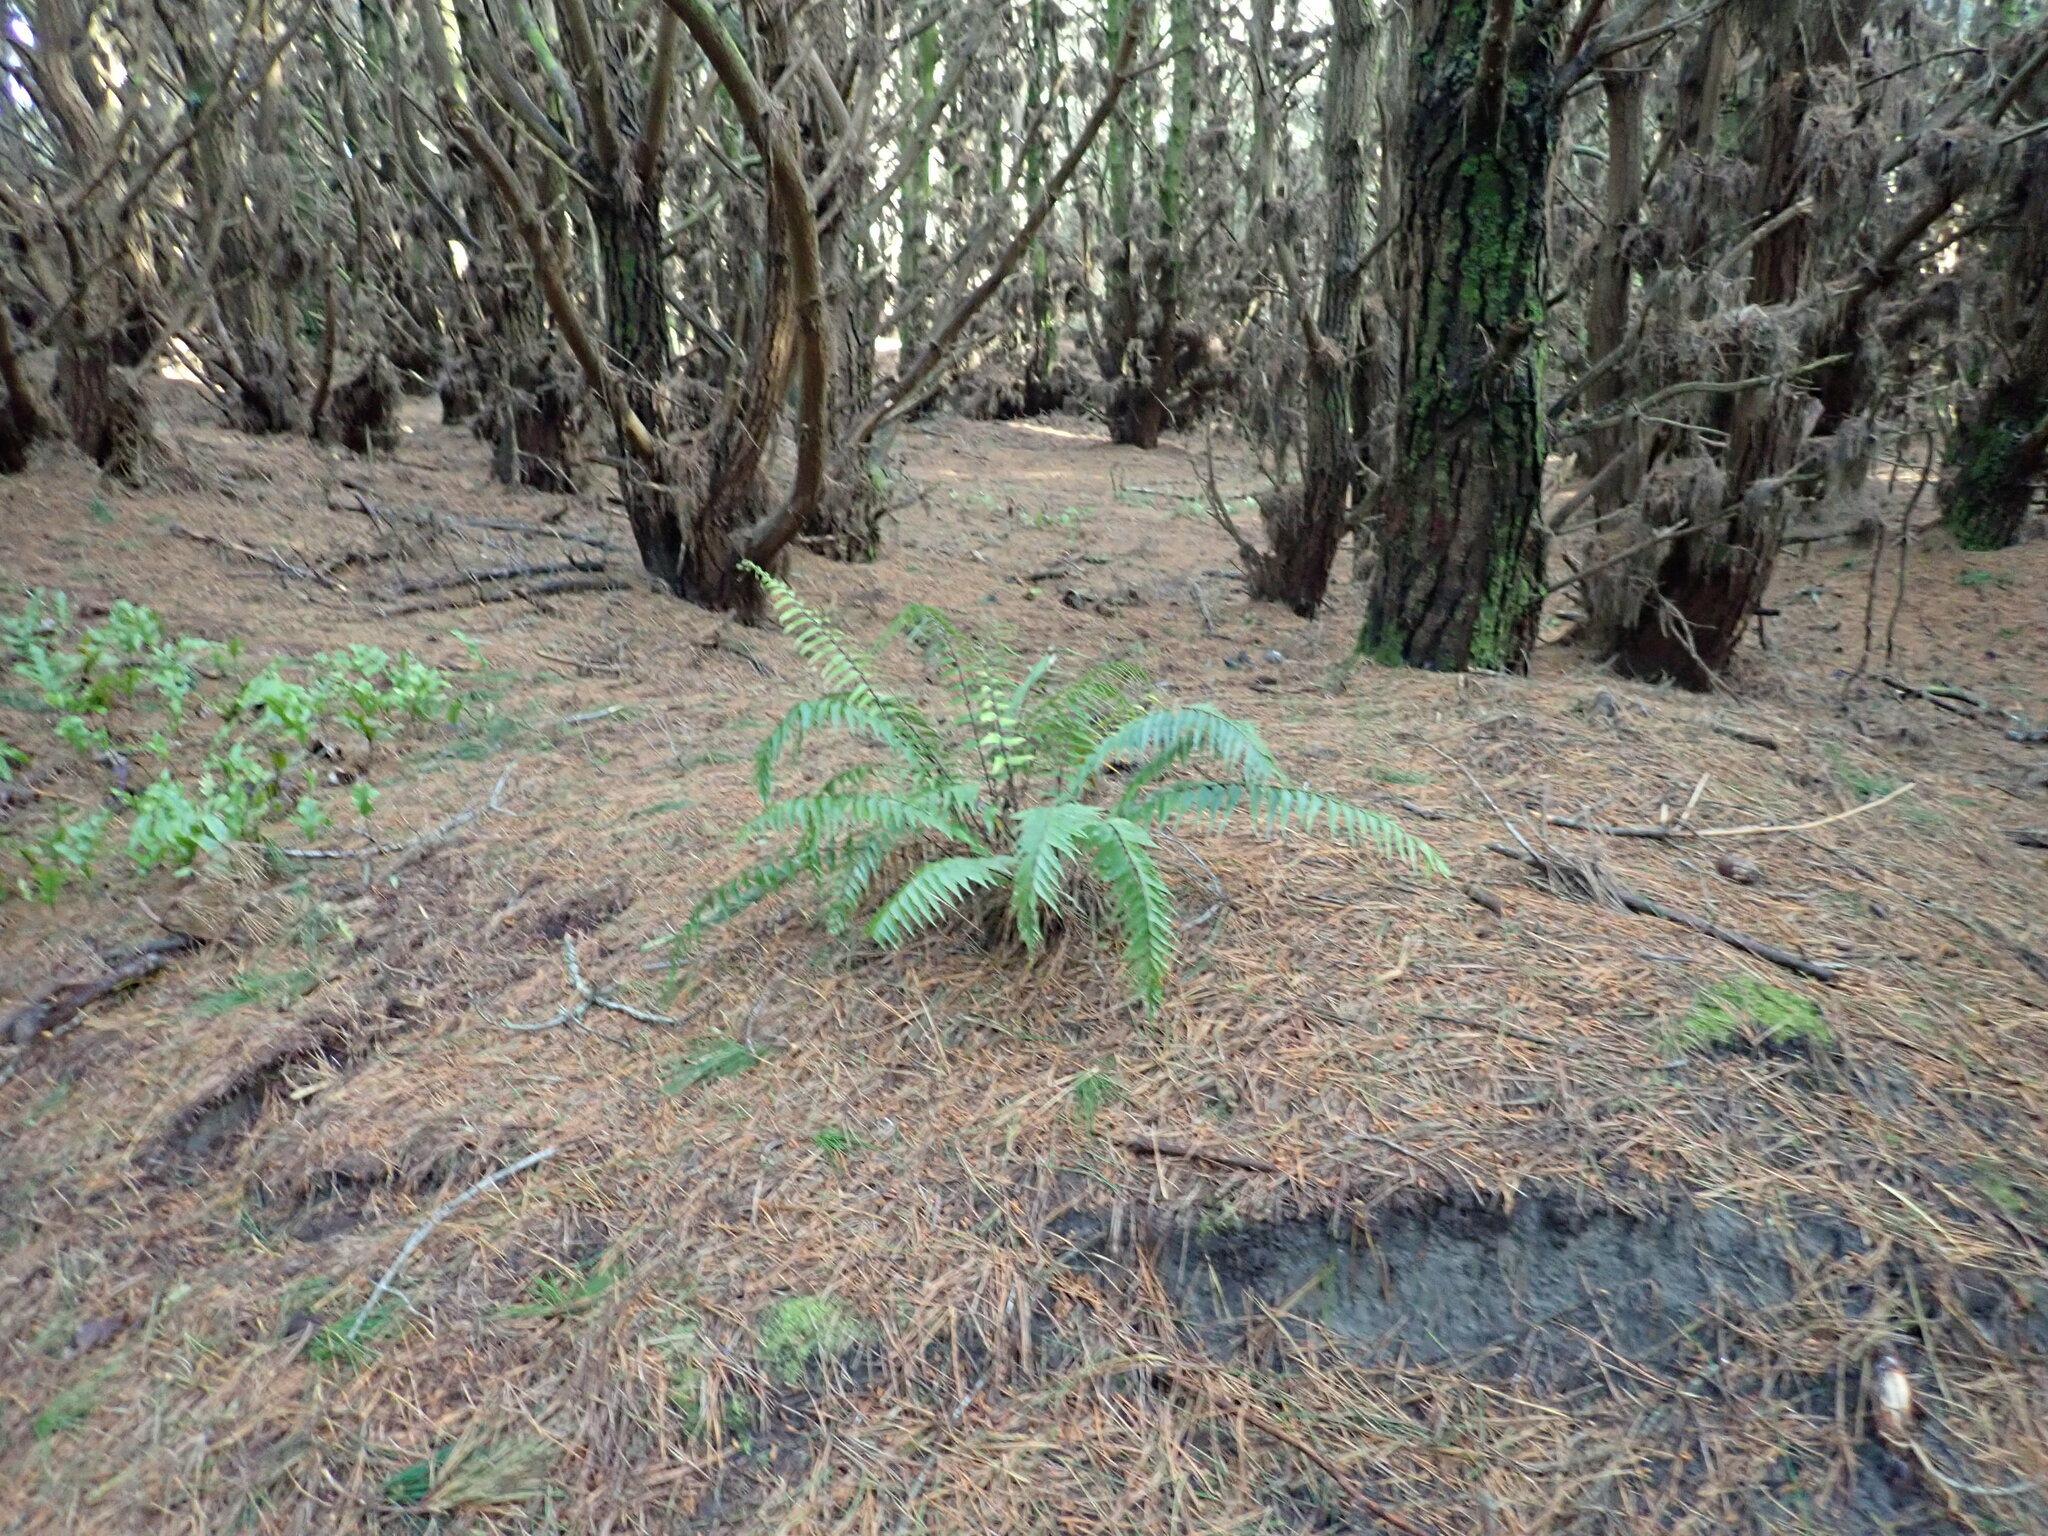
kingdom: Plantae
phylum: Tracheophyta
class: Polypodiopsida
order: Polypodiales
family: Aspleniaceae
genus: Asplenium
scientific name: Asplenium polyodon
